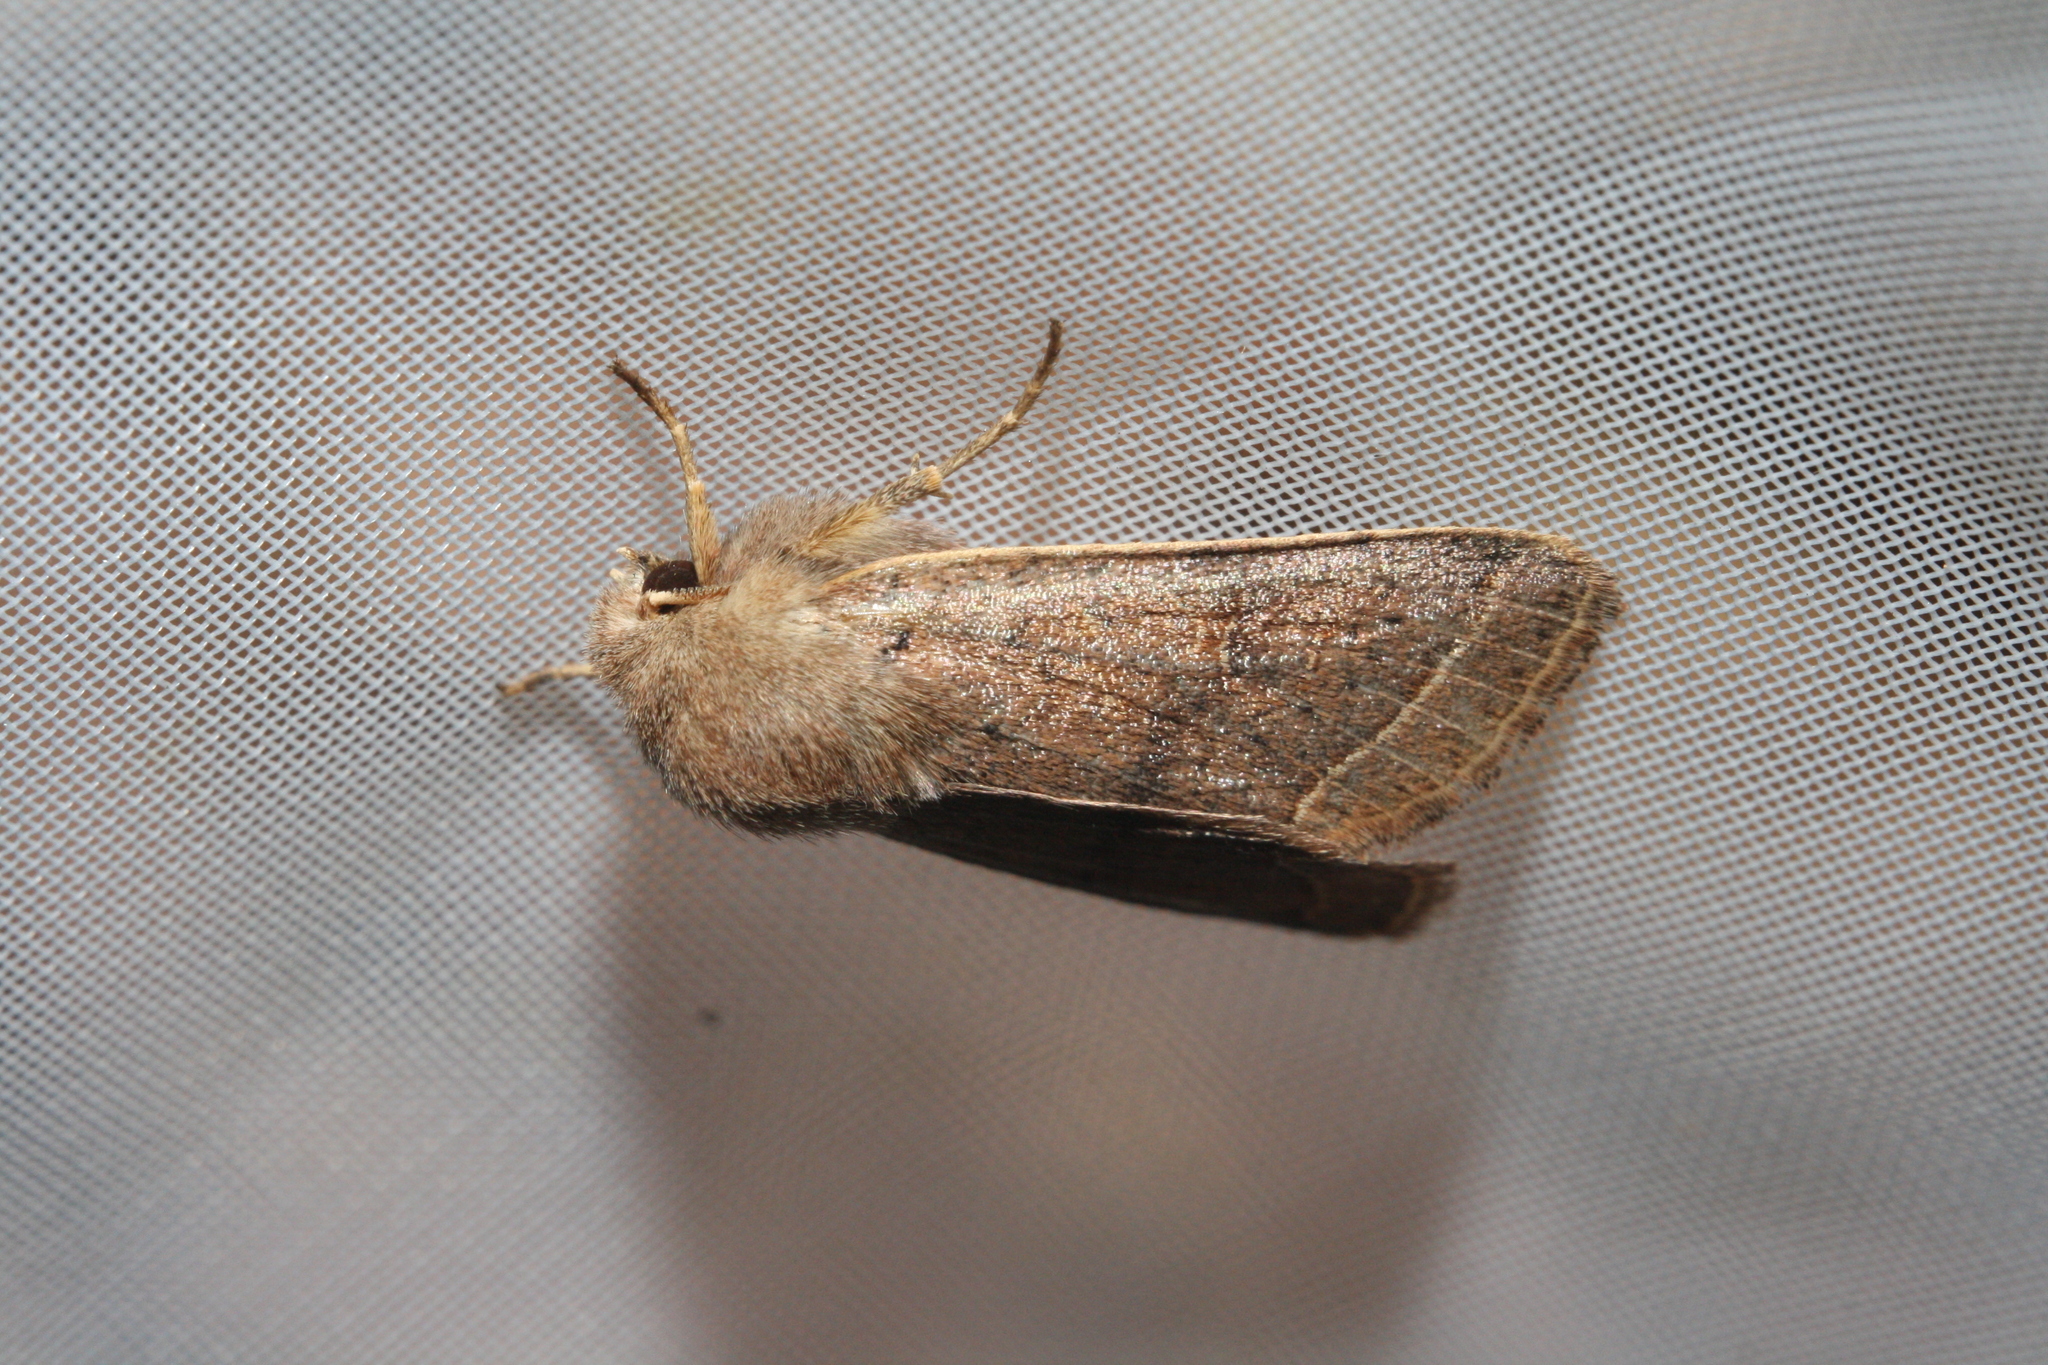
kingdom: Animalia
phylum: Arthropoda
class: Insecta
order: Lepidoptera
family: Noctuidae
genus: Orthosia
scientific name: Orthosia cerasi
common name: Common quaker
